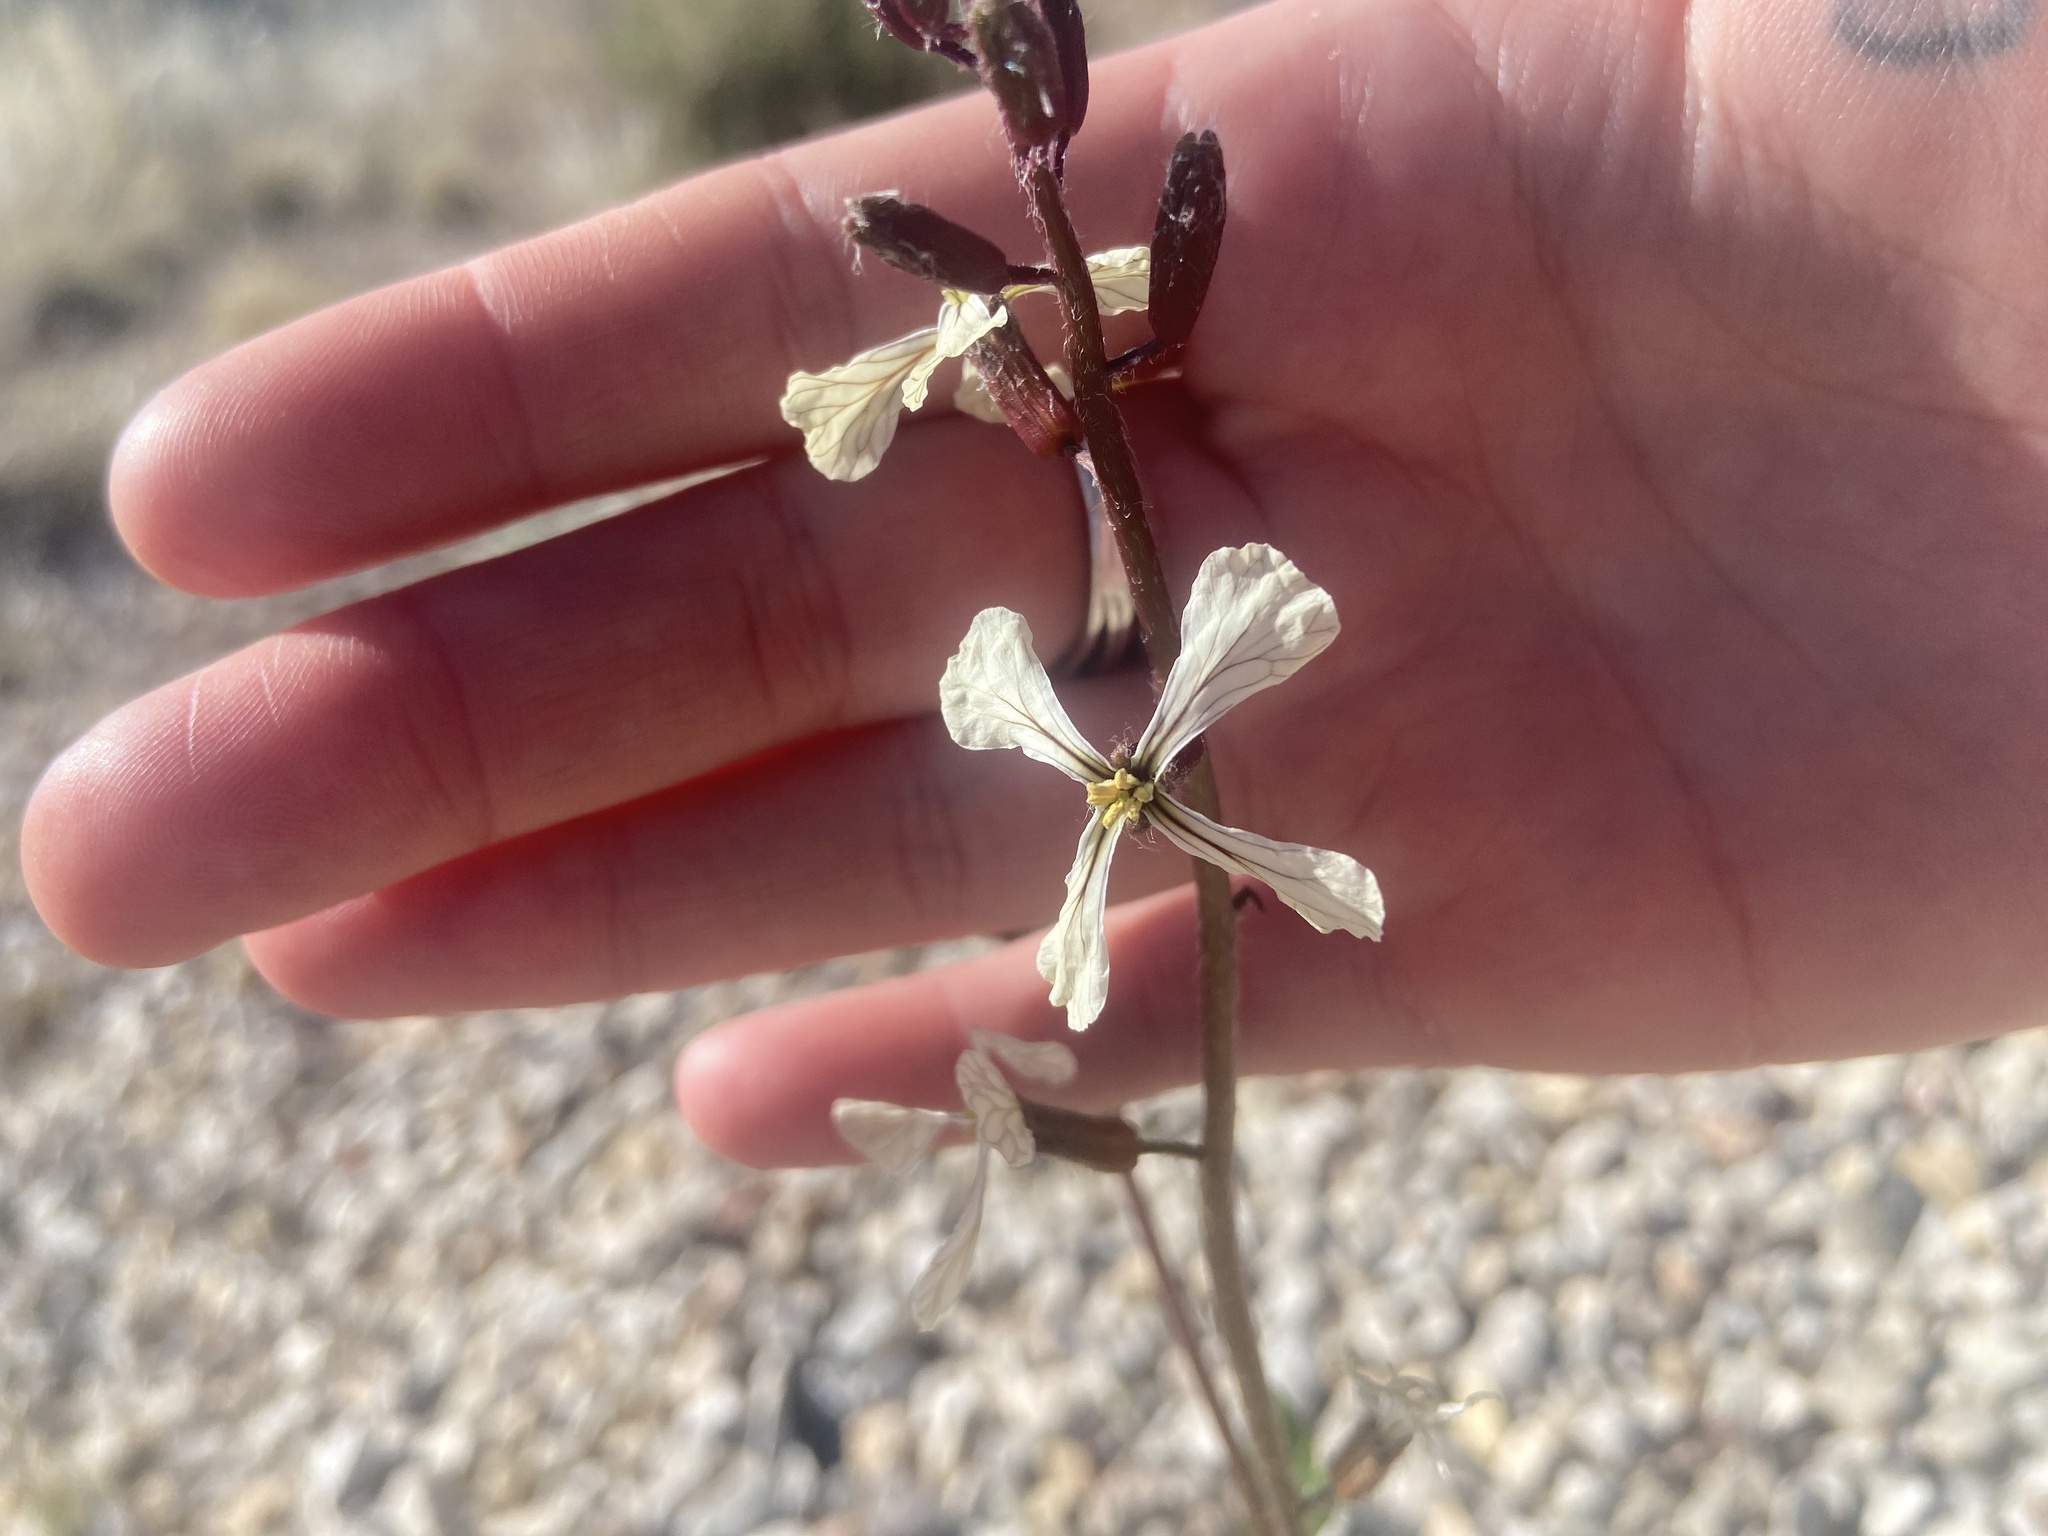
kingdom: Plantae
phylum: Tracheophyta
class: Magnoliopsida
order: Brassicales
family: Brassicaceae
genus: Eruca
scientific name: Eruca vesicaria
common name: Garden rocket
